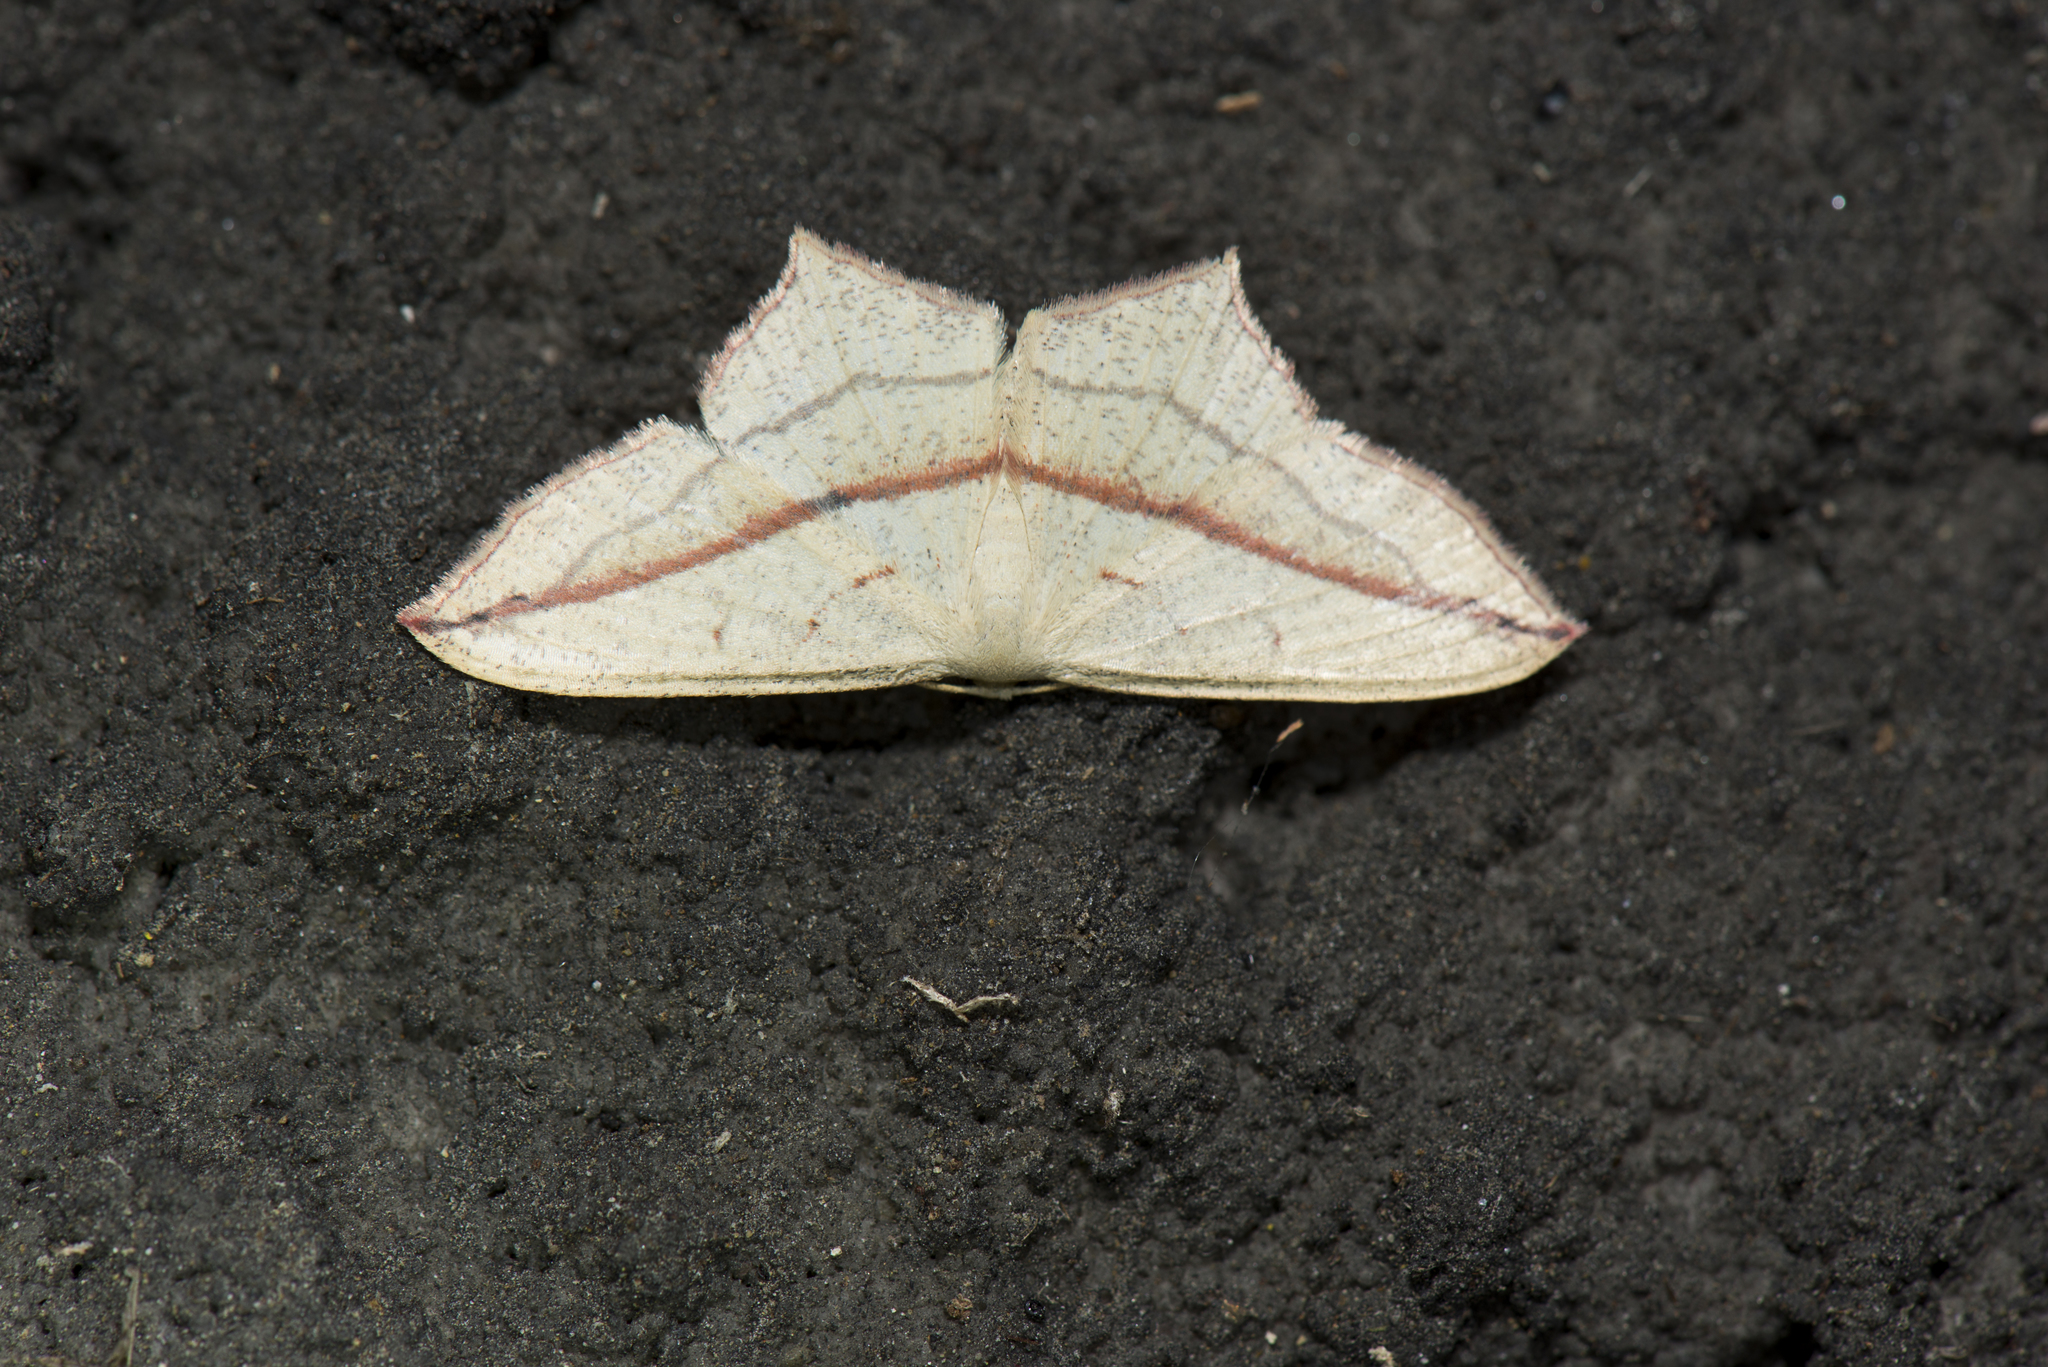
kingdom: Animalia
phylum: Arthropoda
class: Insecta
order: Lepidoptera
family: Geometridae
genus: Timandra
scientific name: Timandra synthaca
